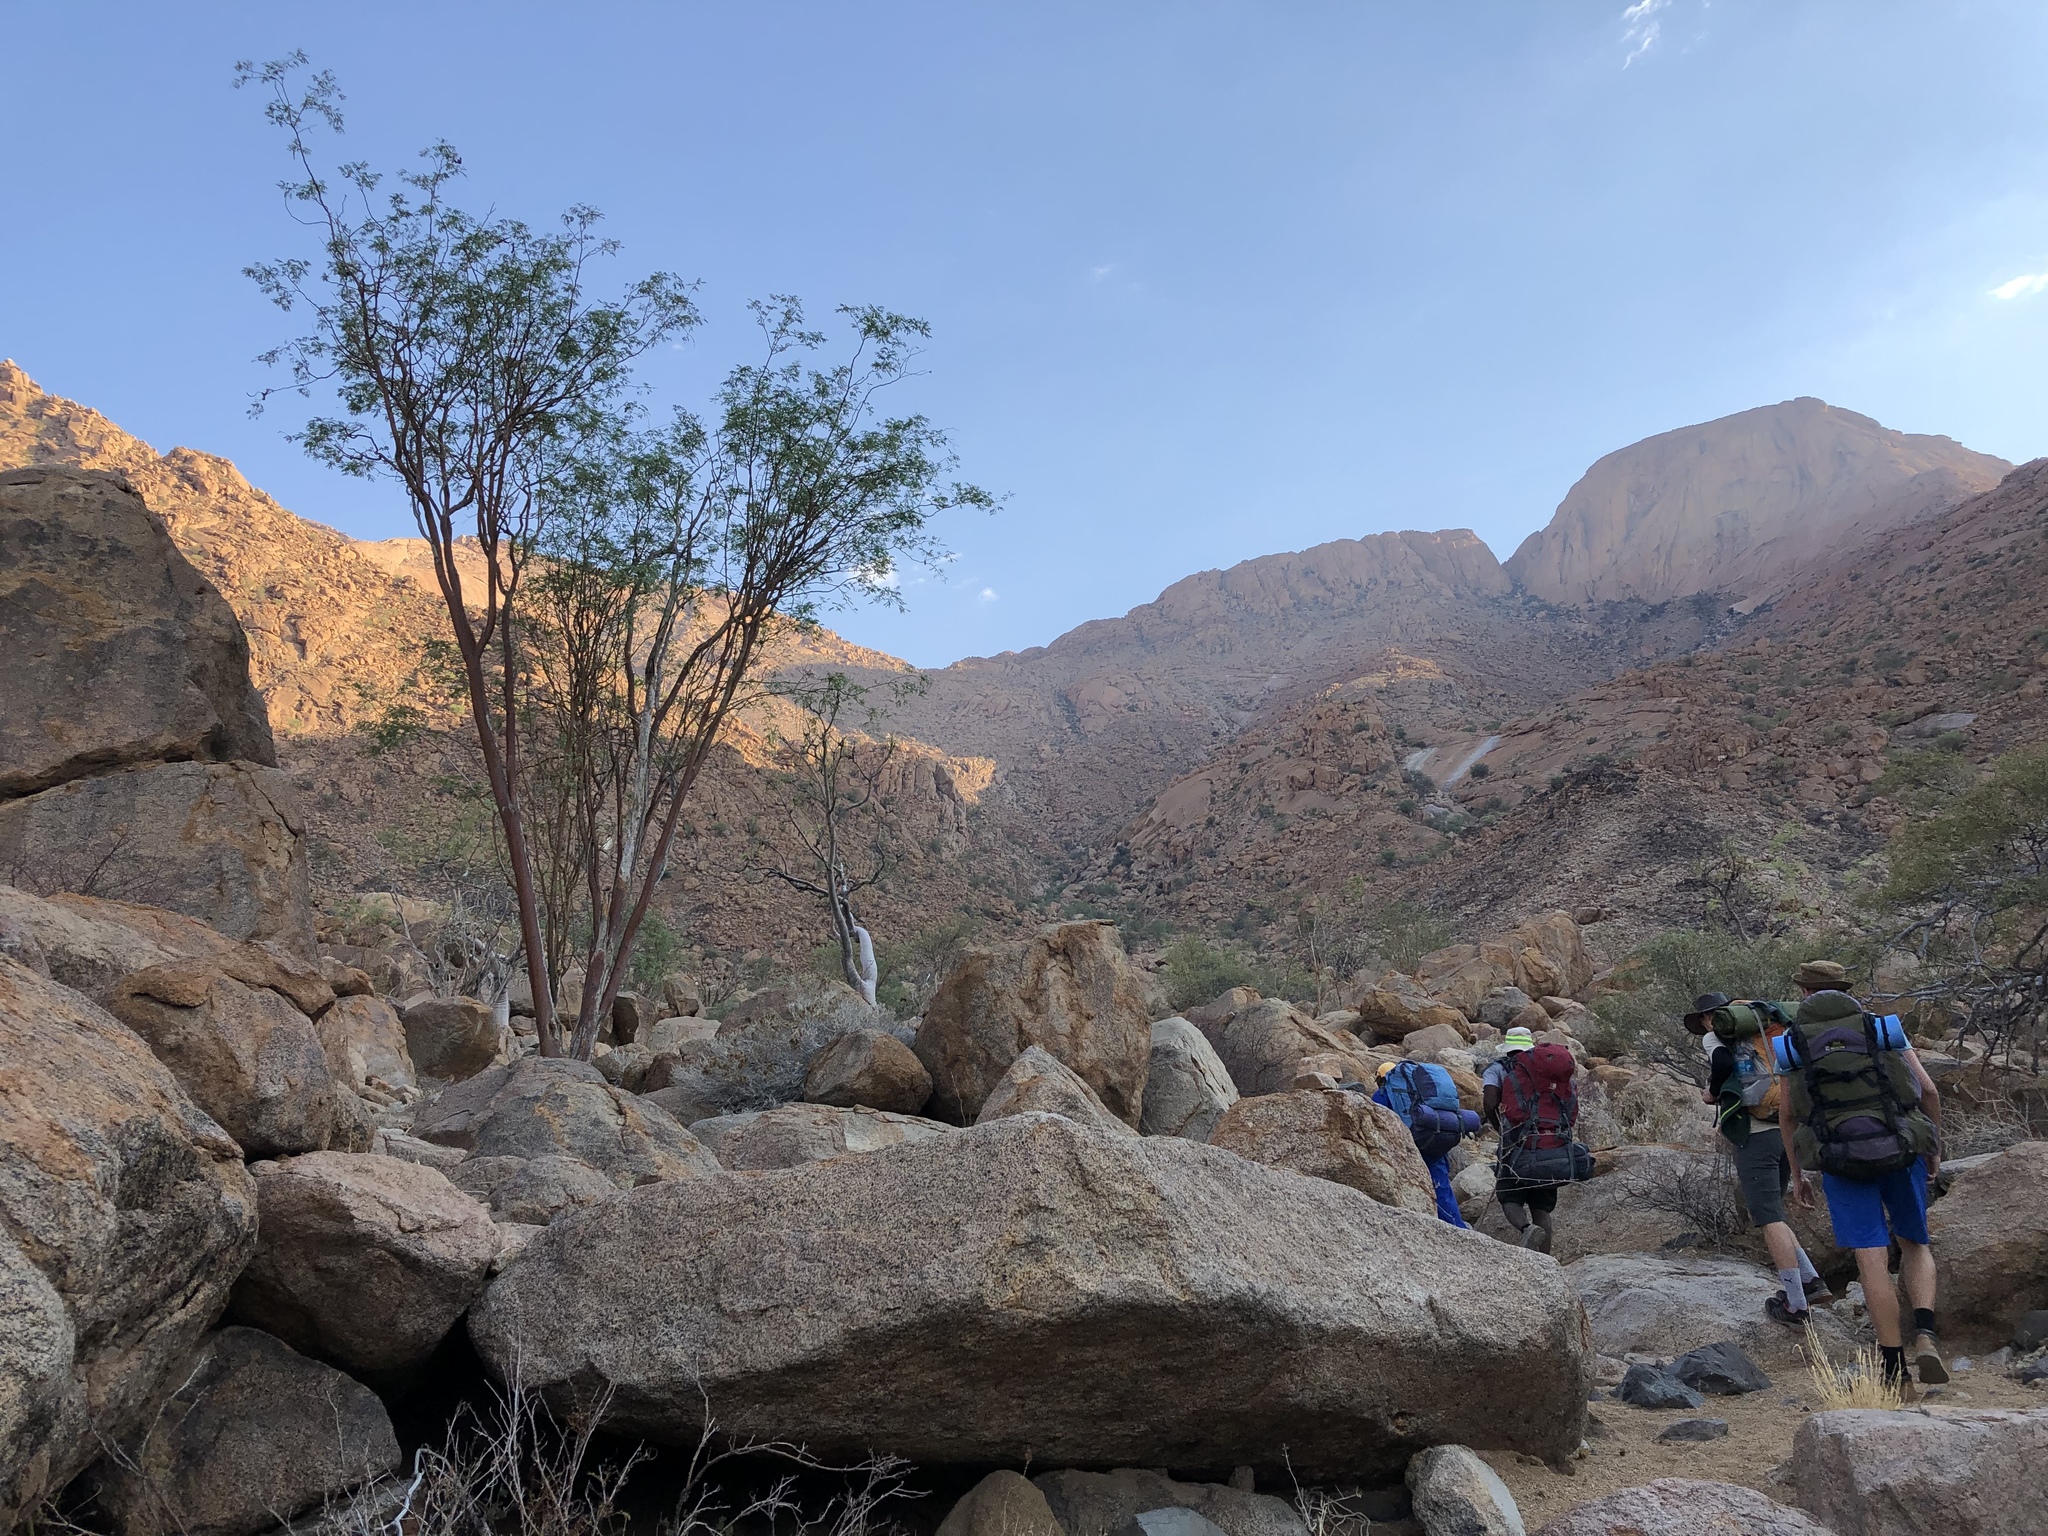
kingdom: Plantae
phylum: Tracheophyta
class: Magnoliopsida
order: Fabales
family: Fabaceae
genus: Senegalia
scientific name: Senegalia montis-usti
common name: Brandberg acacia
